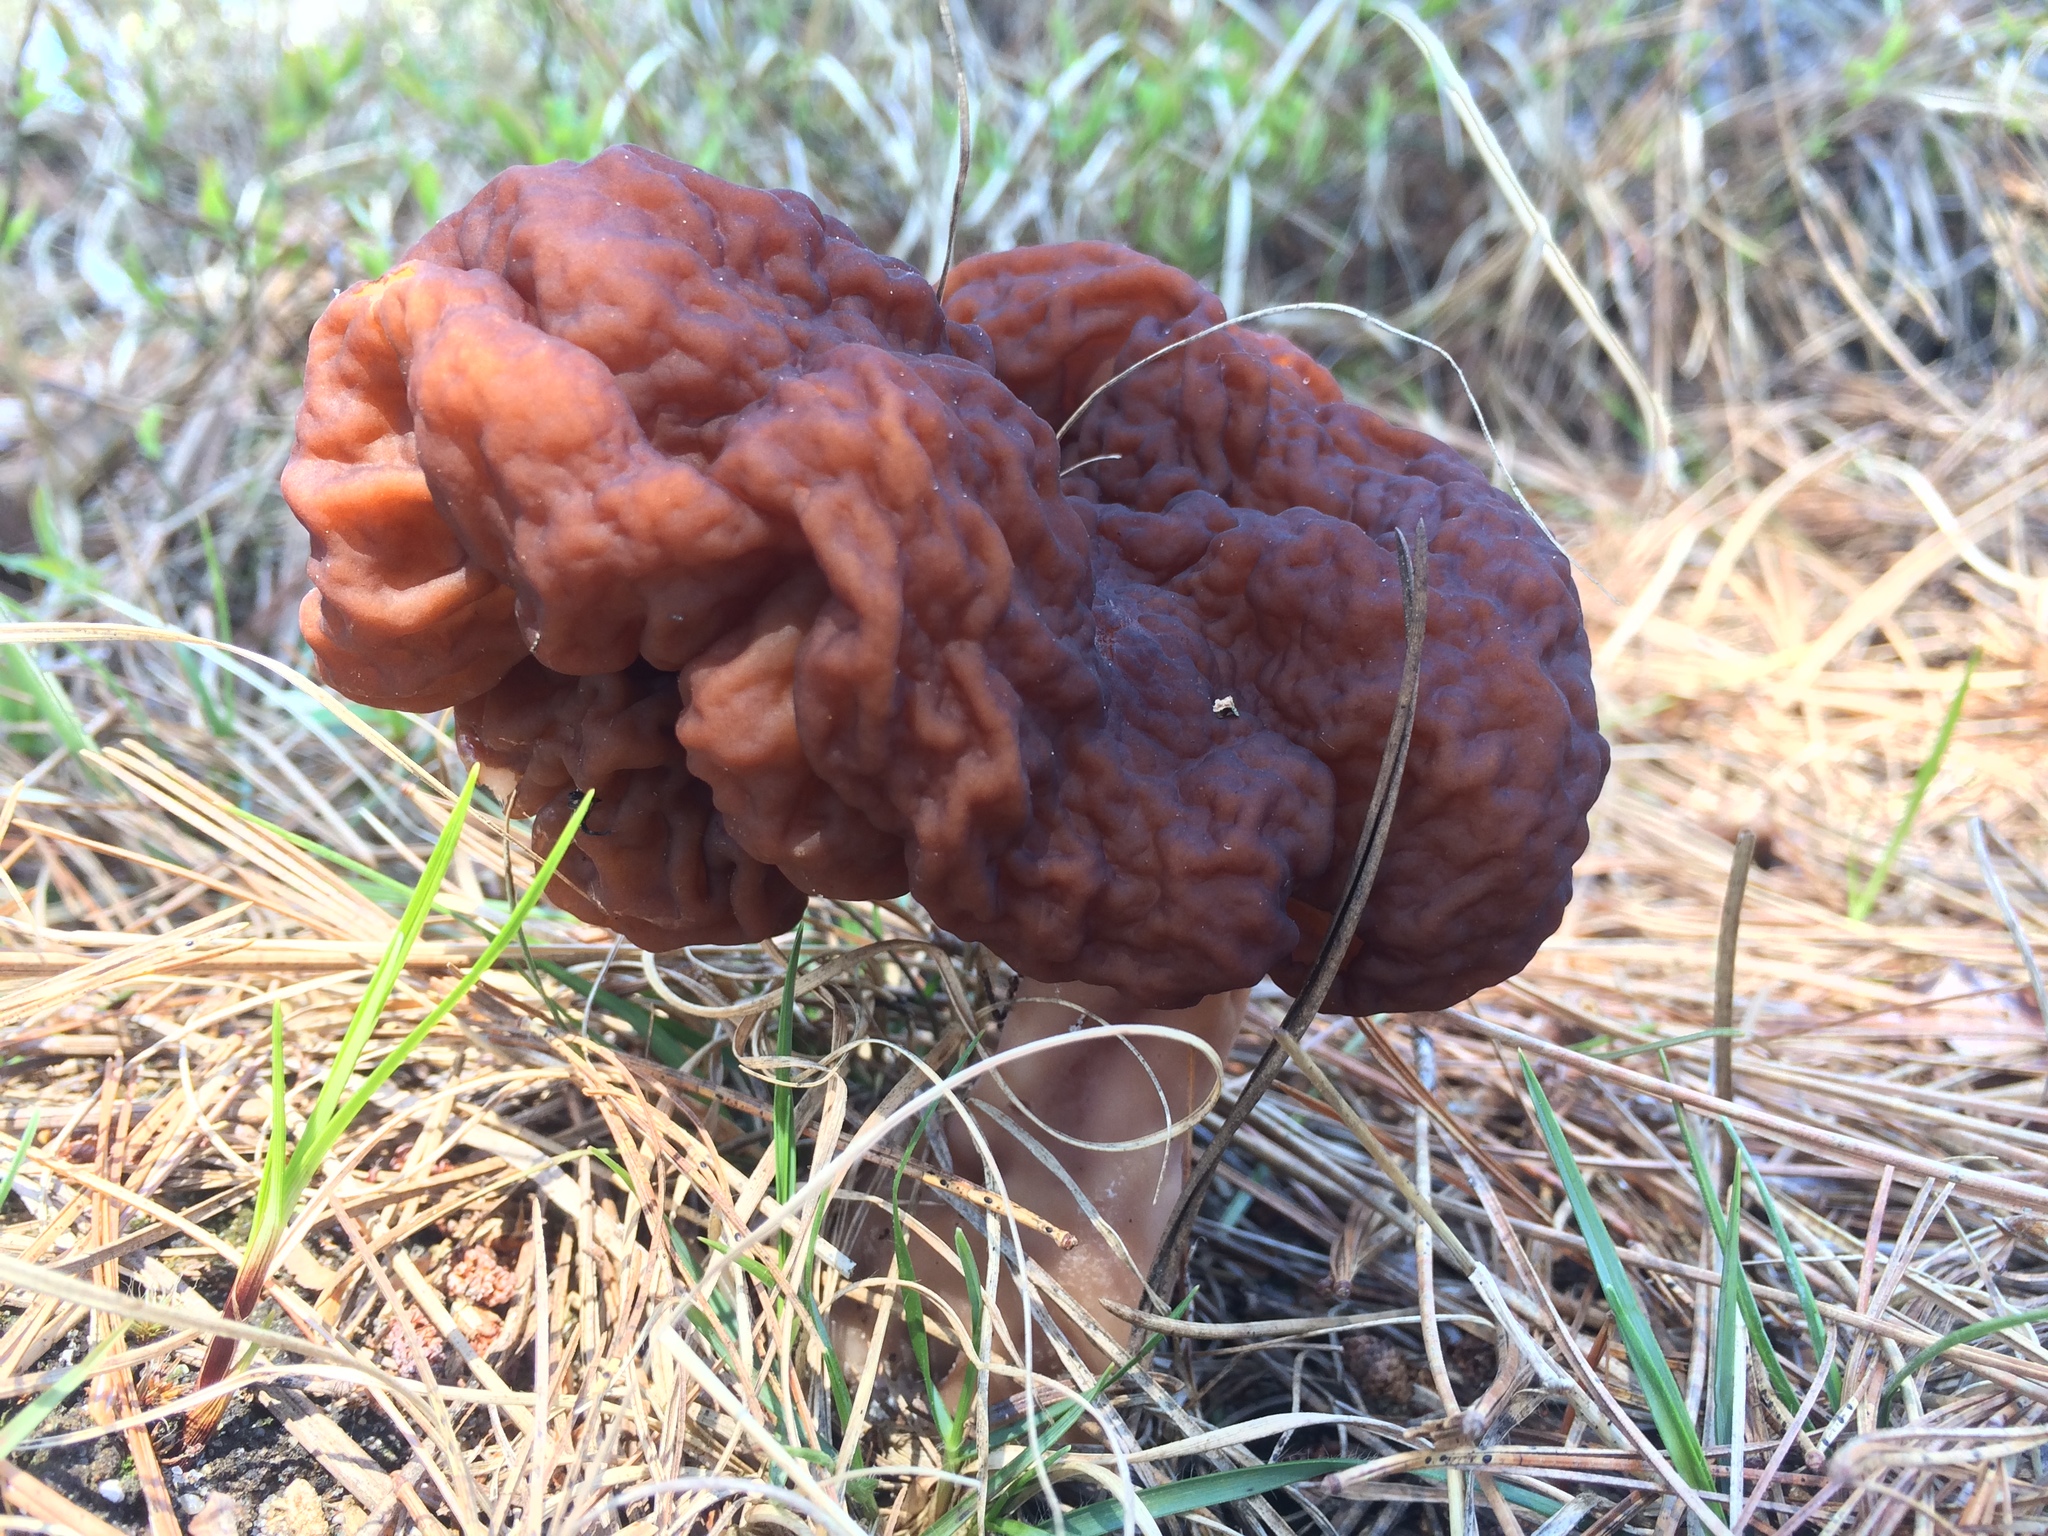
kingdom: Fungi
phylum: Ascomycota
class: Pezizomycetes
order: Pezizales
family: Discinaceae
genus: Gyromitra
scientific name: Gyromitra esculenta
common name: False morel
